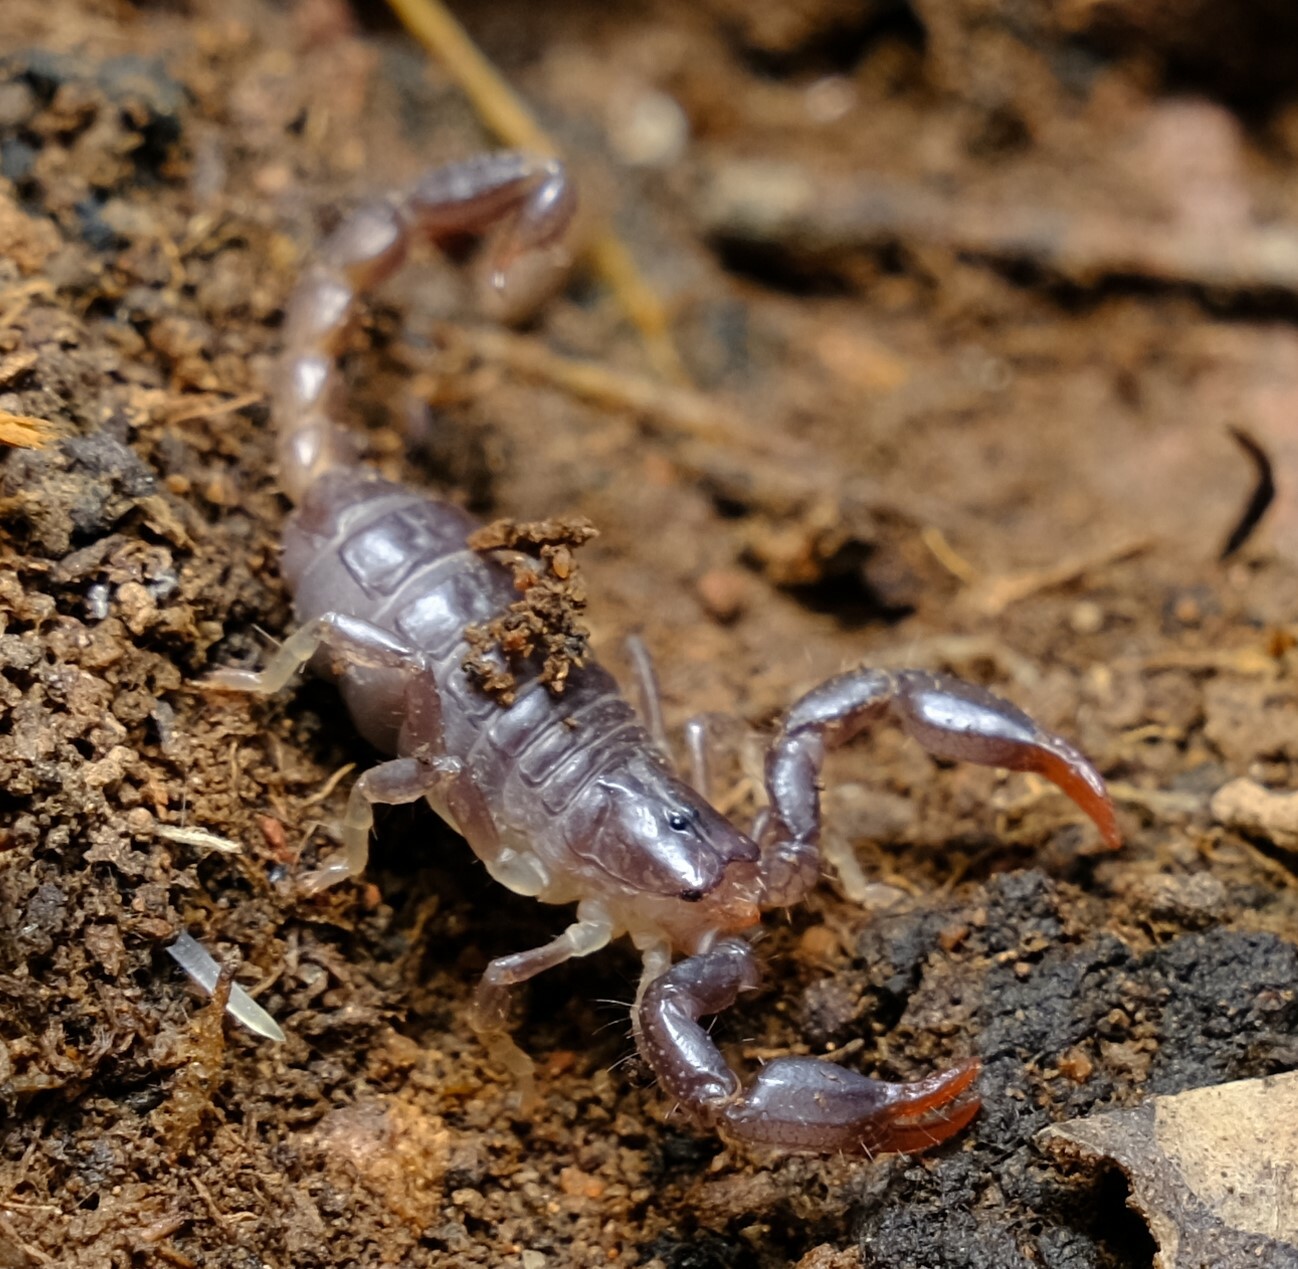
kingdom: Animalia
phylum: Arthropoda
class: Arachnida
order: Scorpiones
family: Scorpionidae
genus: Urodacus
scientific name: Urodacus manicatus
